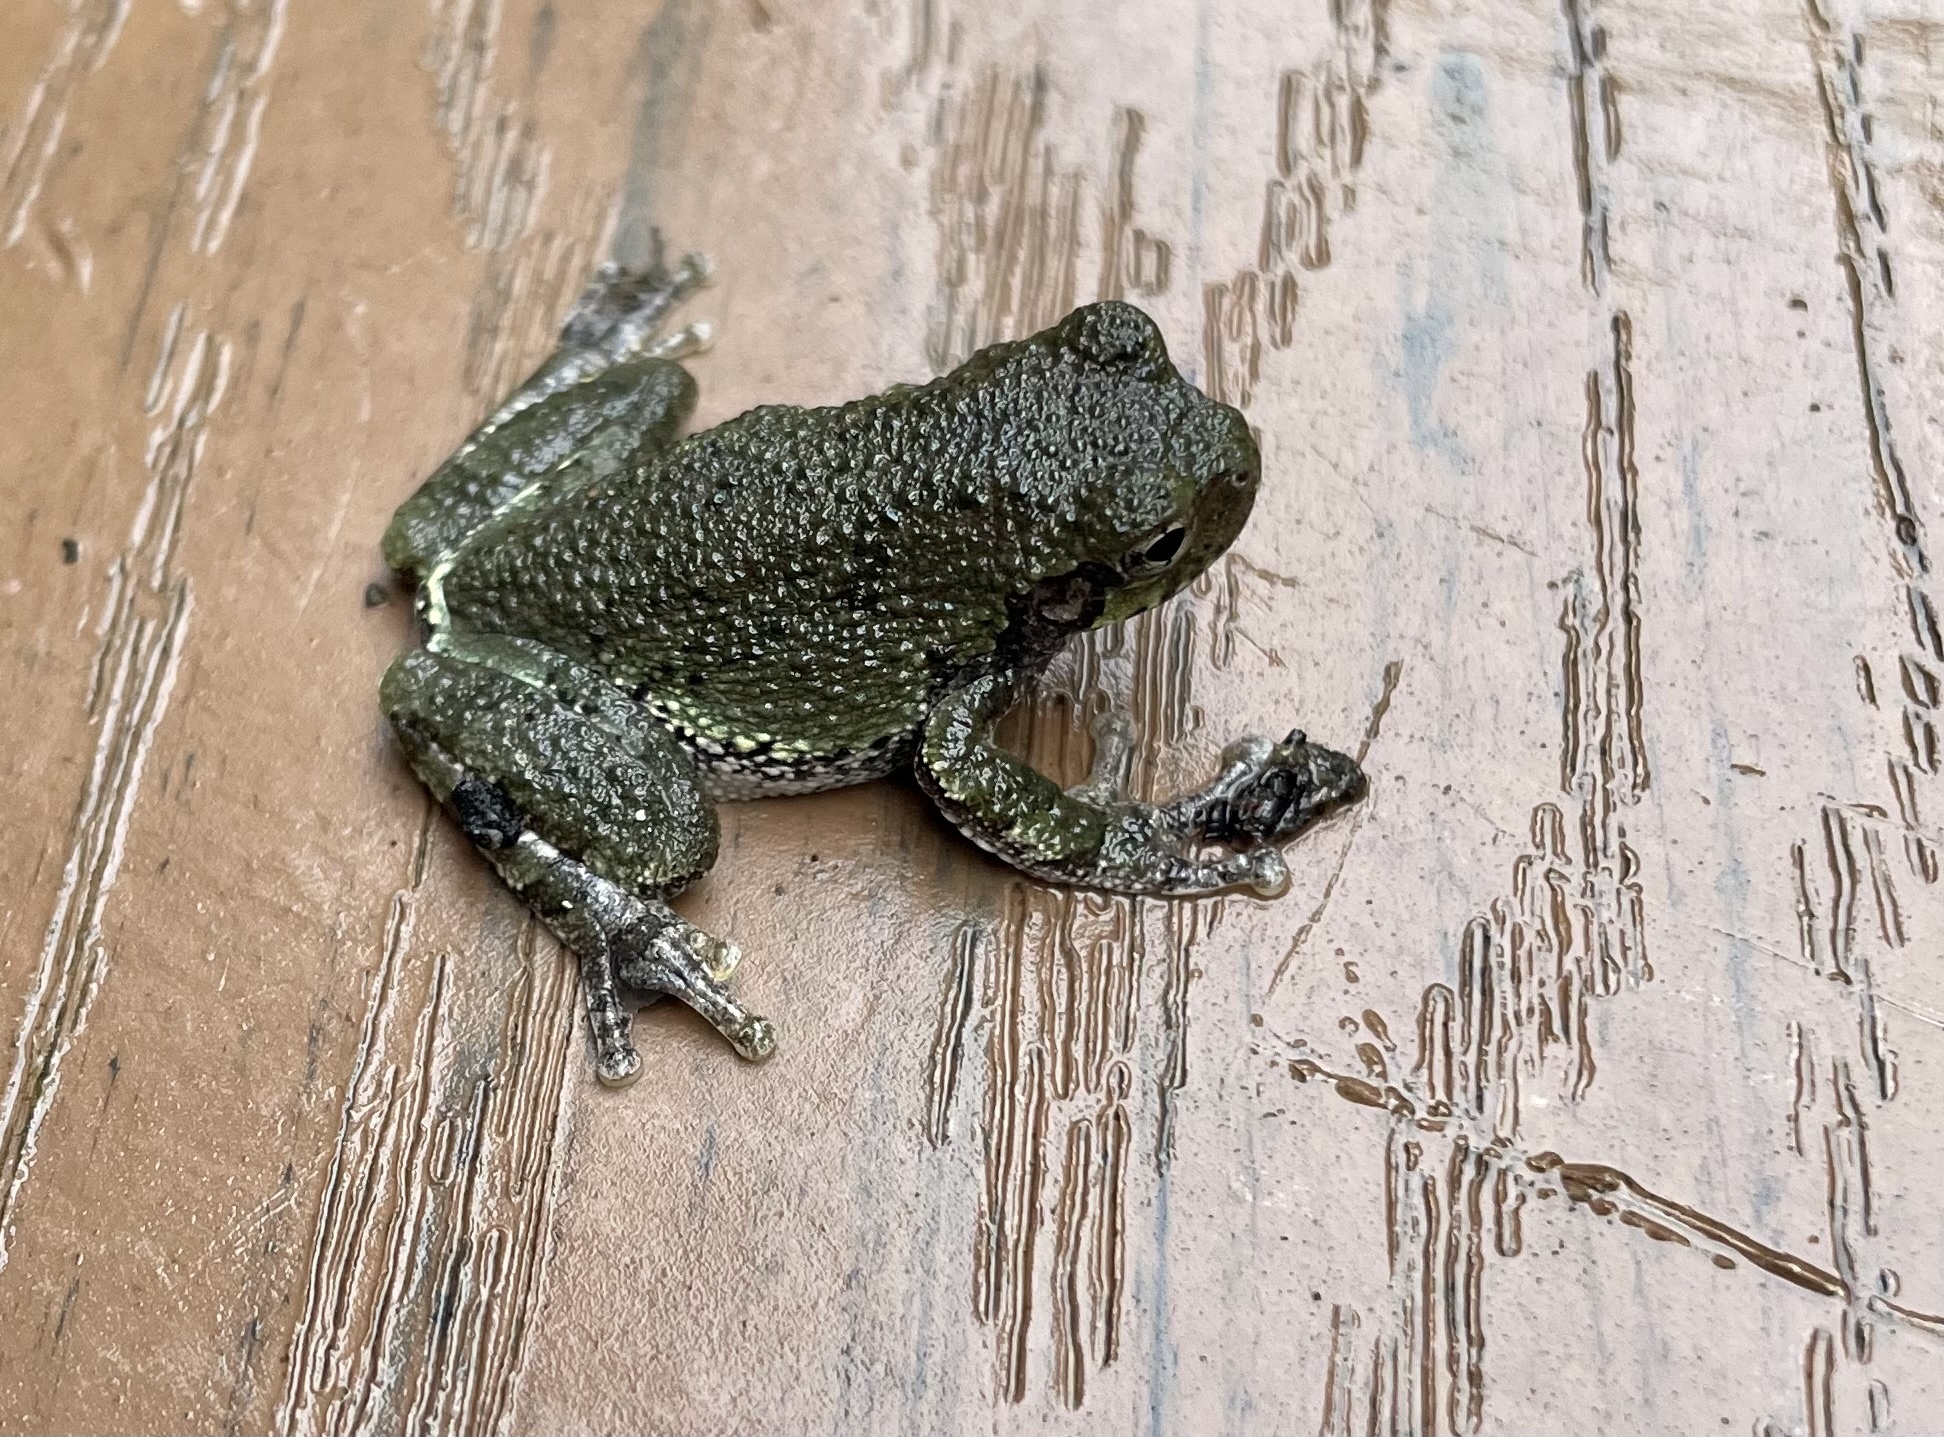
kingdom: Animalia
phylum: Chordata
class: Amphibia
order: Anura
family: Hylidae
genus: Dryophytes
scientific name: Dryophytes versicolor
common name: Gray treefrog
